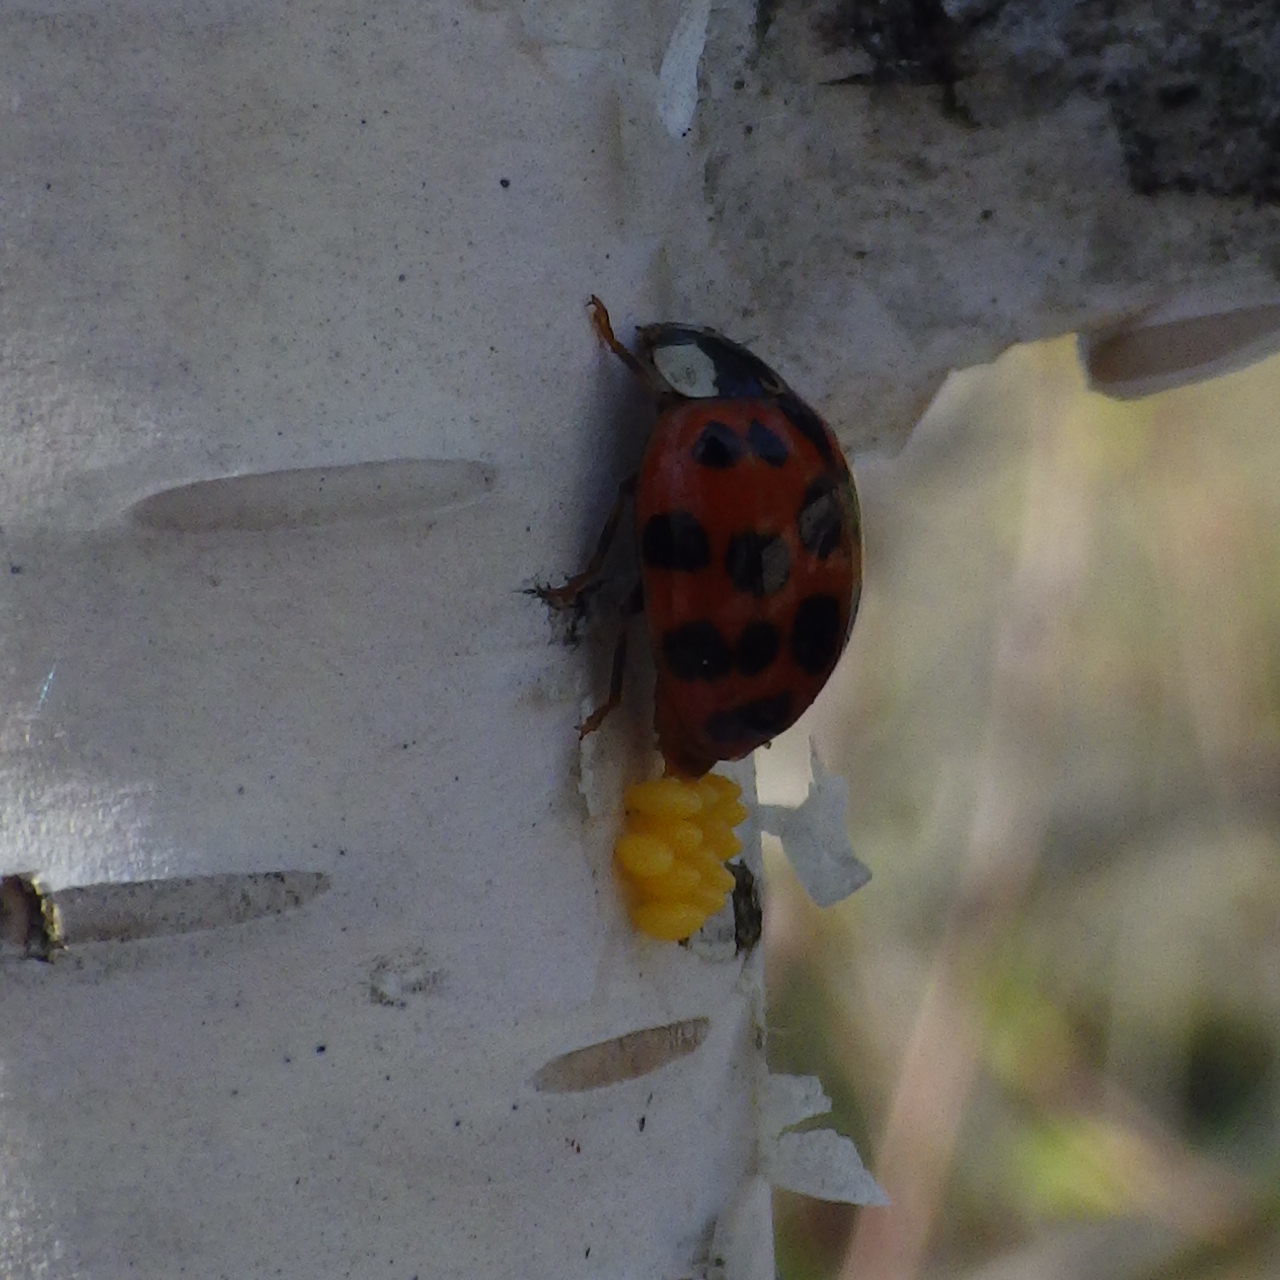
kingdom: Animalia
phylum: Arthropoda
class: Insecta
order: Coleoptera
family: Coccinellidae
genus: Harmonia
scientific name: Harmonia axyridis
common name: Harlequin ladybird
